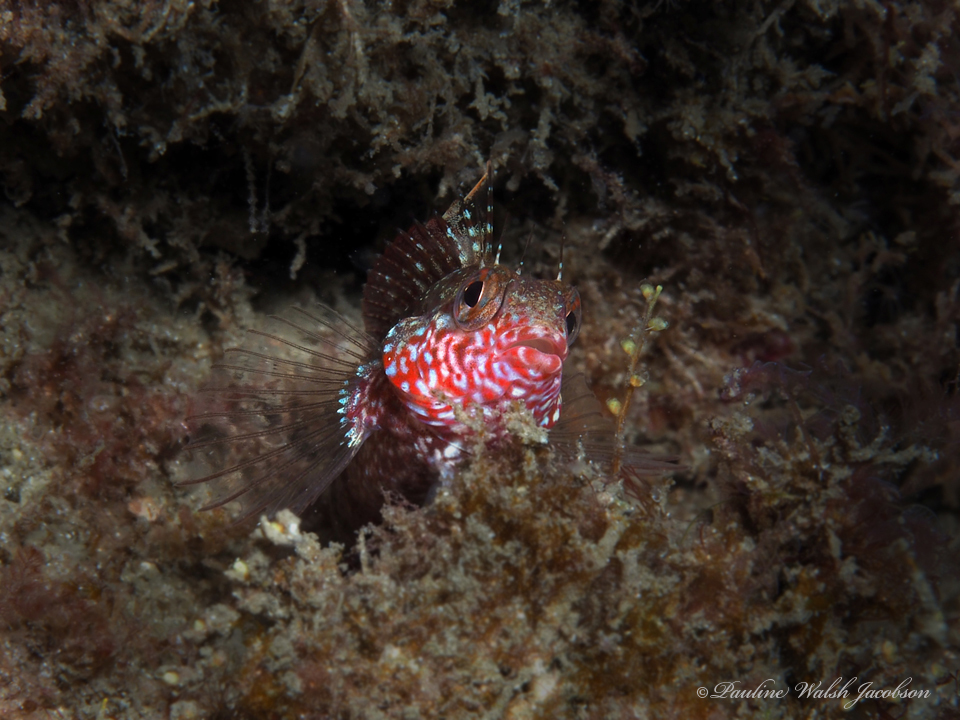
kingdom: Animalia
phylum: Chordata
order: Perciformes
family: Labrisomidae
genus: Malacoctenus
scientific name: Malacoctenus macropus
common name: Rosy blenny
